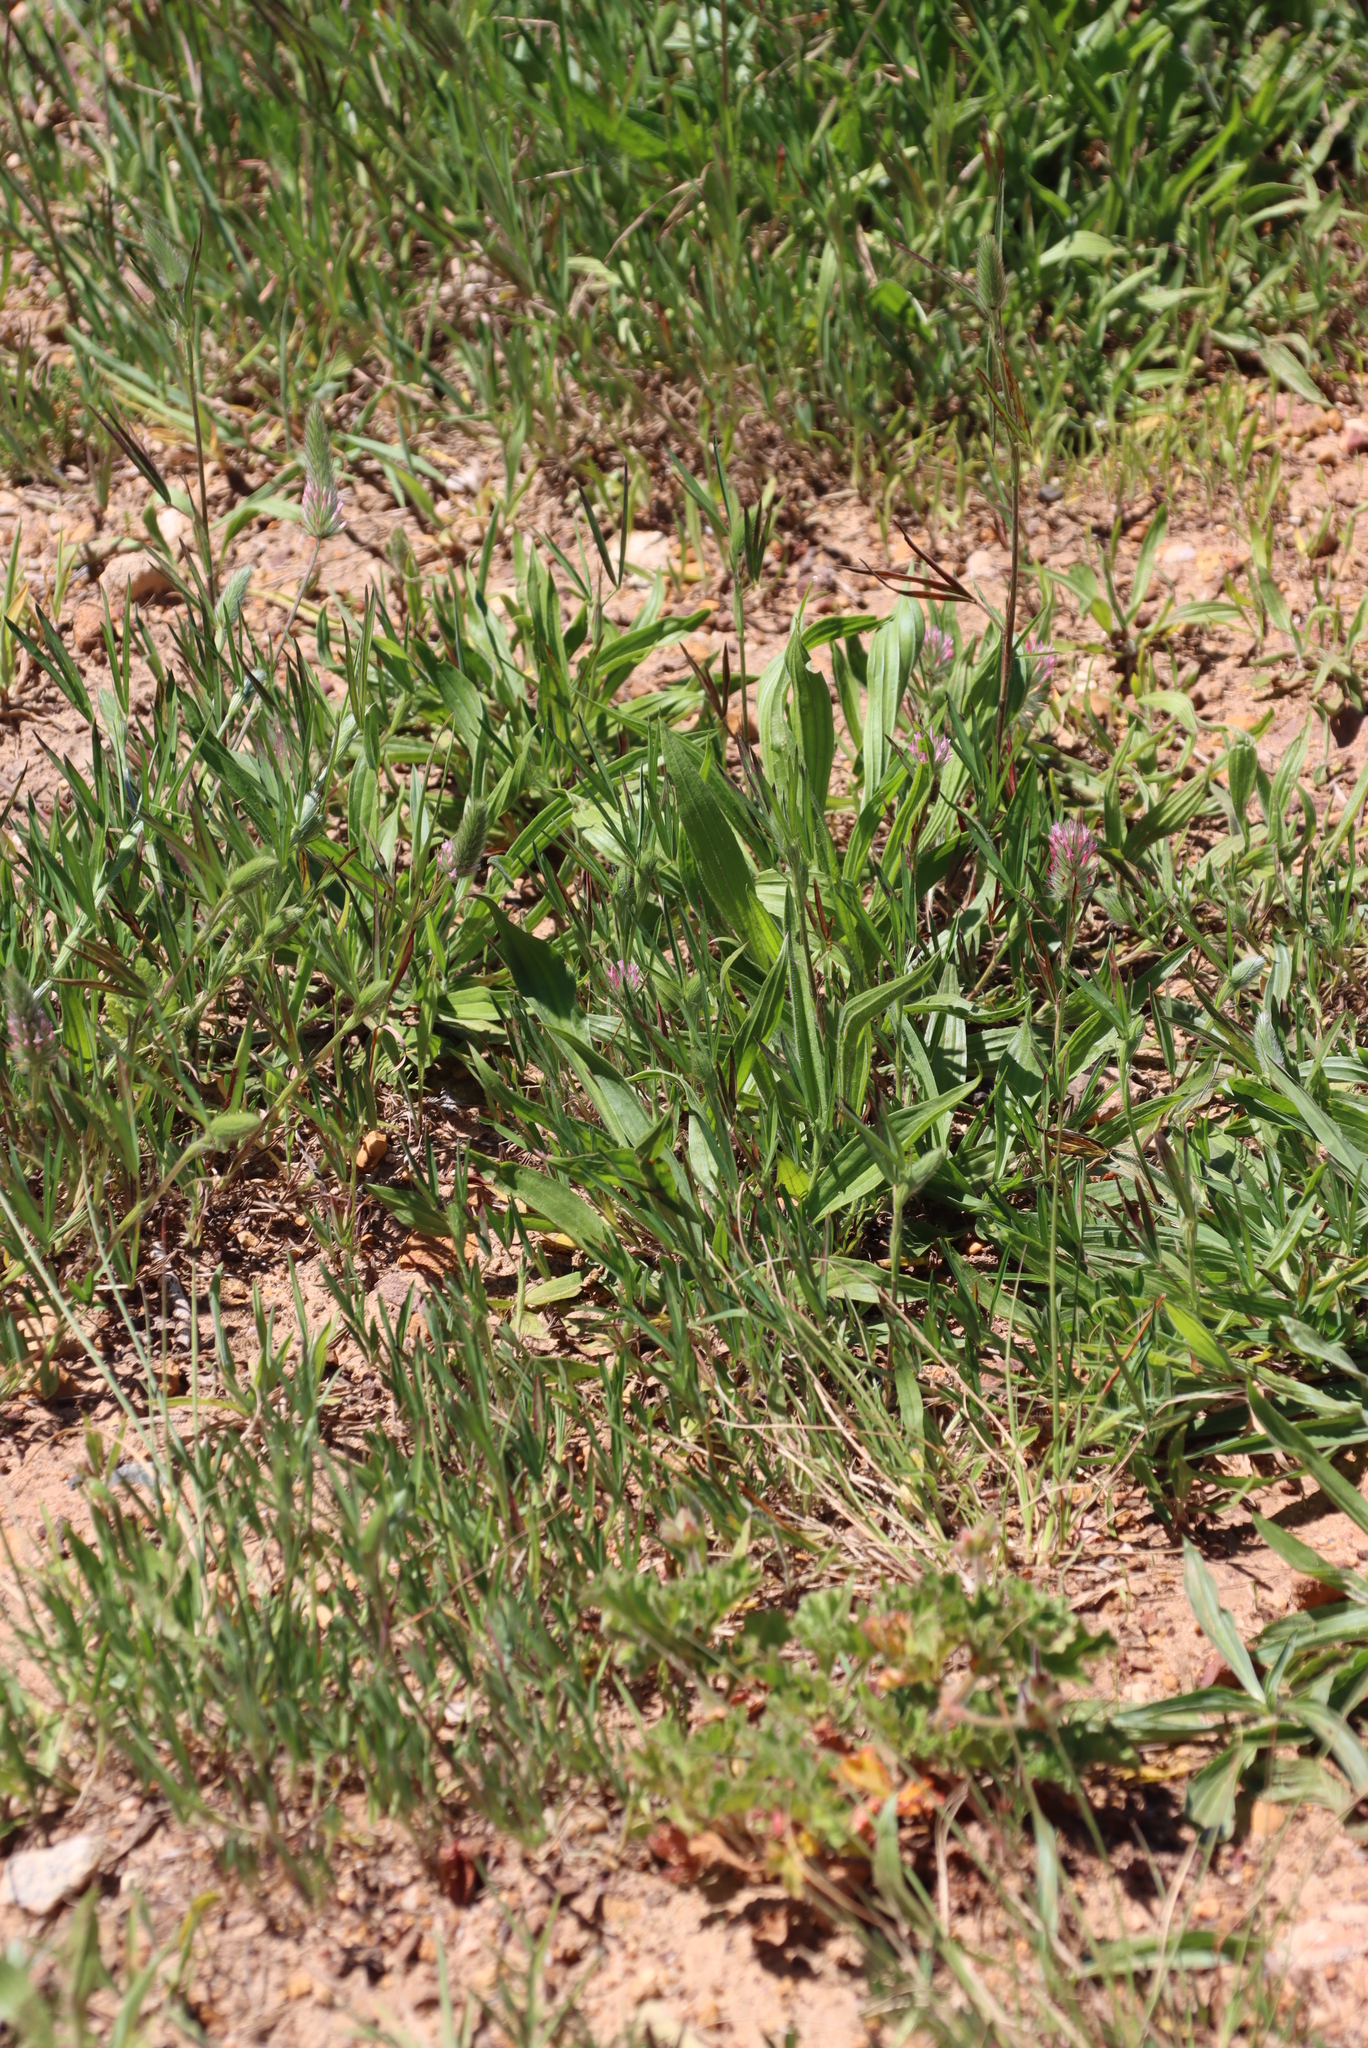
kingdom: Plantae
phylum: Tracheophyta
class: Magnoliopsida
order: Lamiales
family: Plantaginaceae
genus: Plantago
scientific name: Plantago lanceolata
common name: Ribwort plantain
